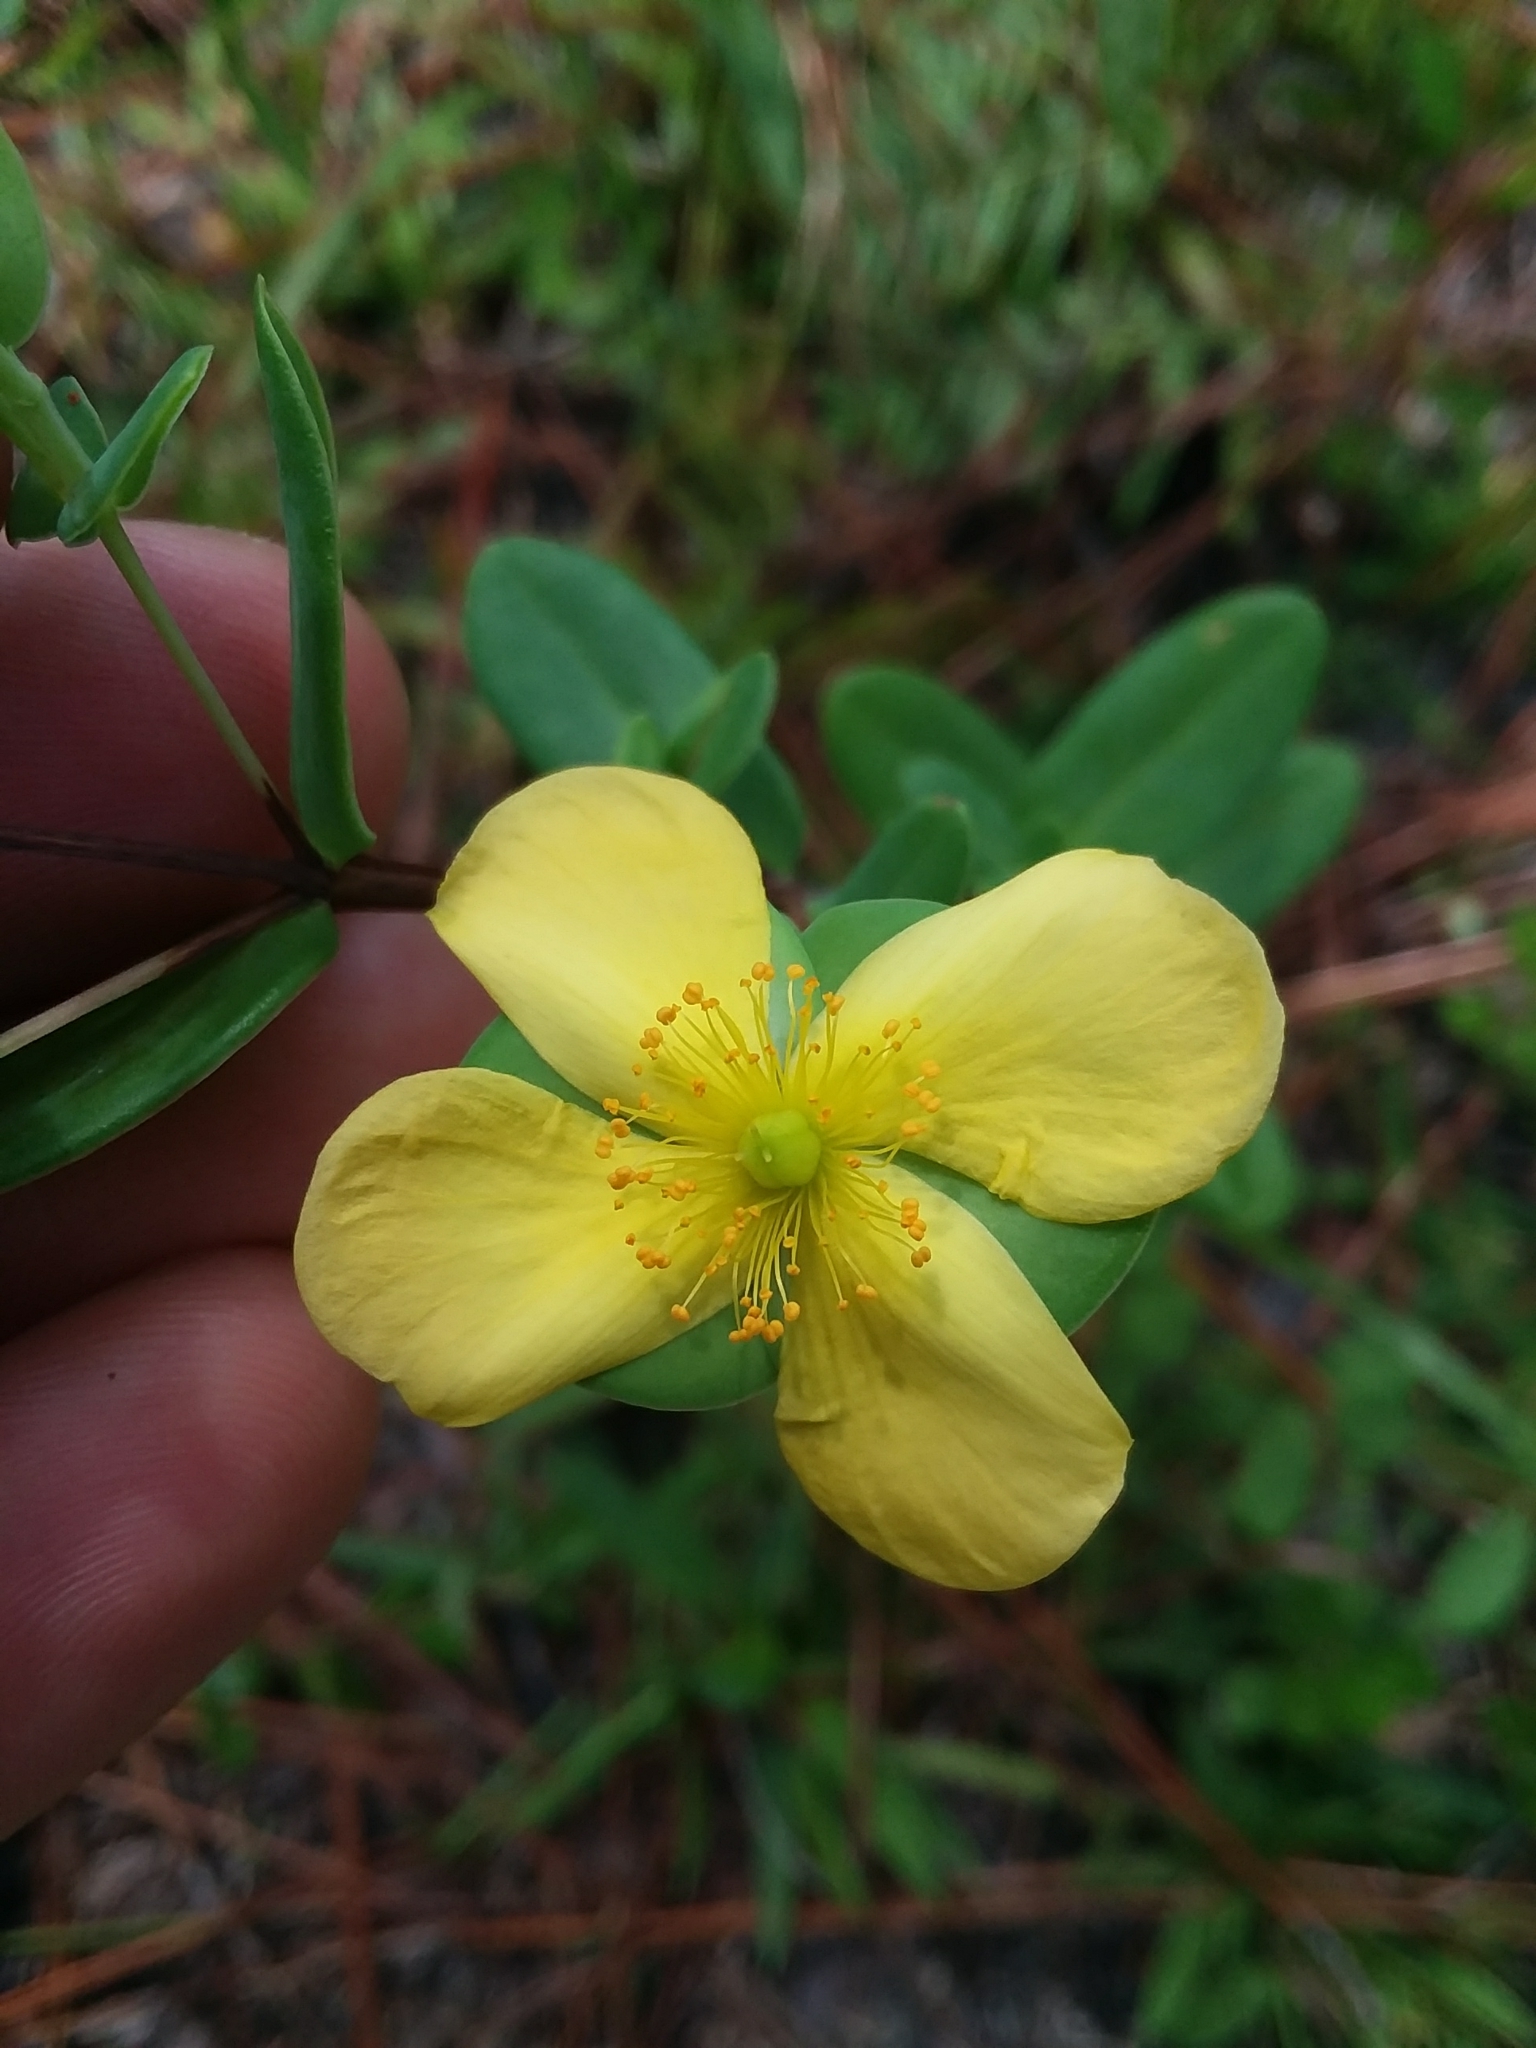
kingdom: Plantae
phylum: Tracheophyta
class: Magnoliopsida
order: Malpighiales
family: Hypericaceae
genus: Hypericum
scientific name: Hypericum crux-andreae
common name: St.-peter's-wort
